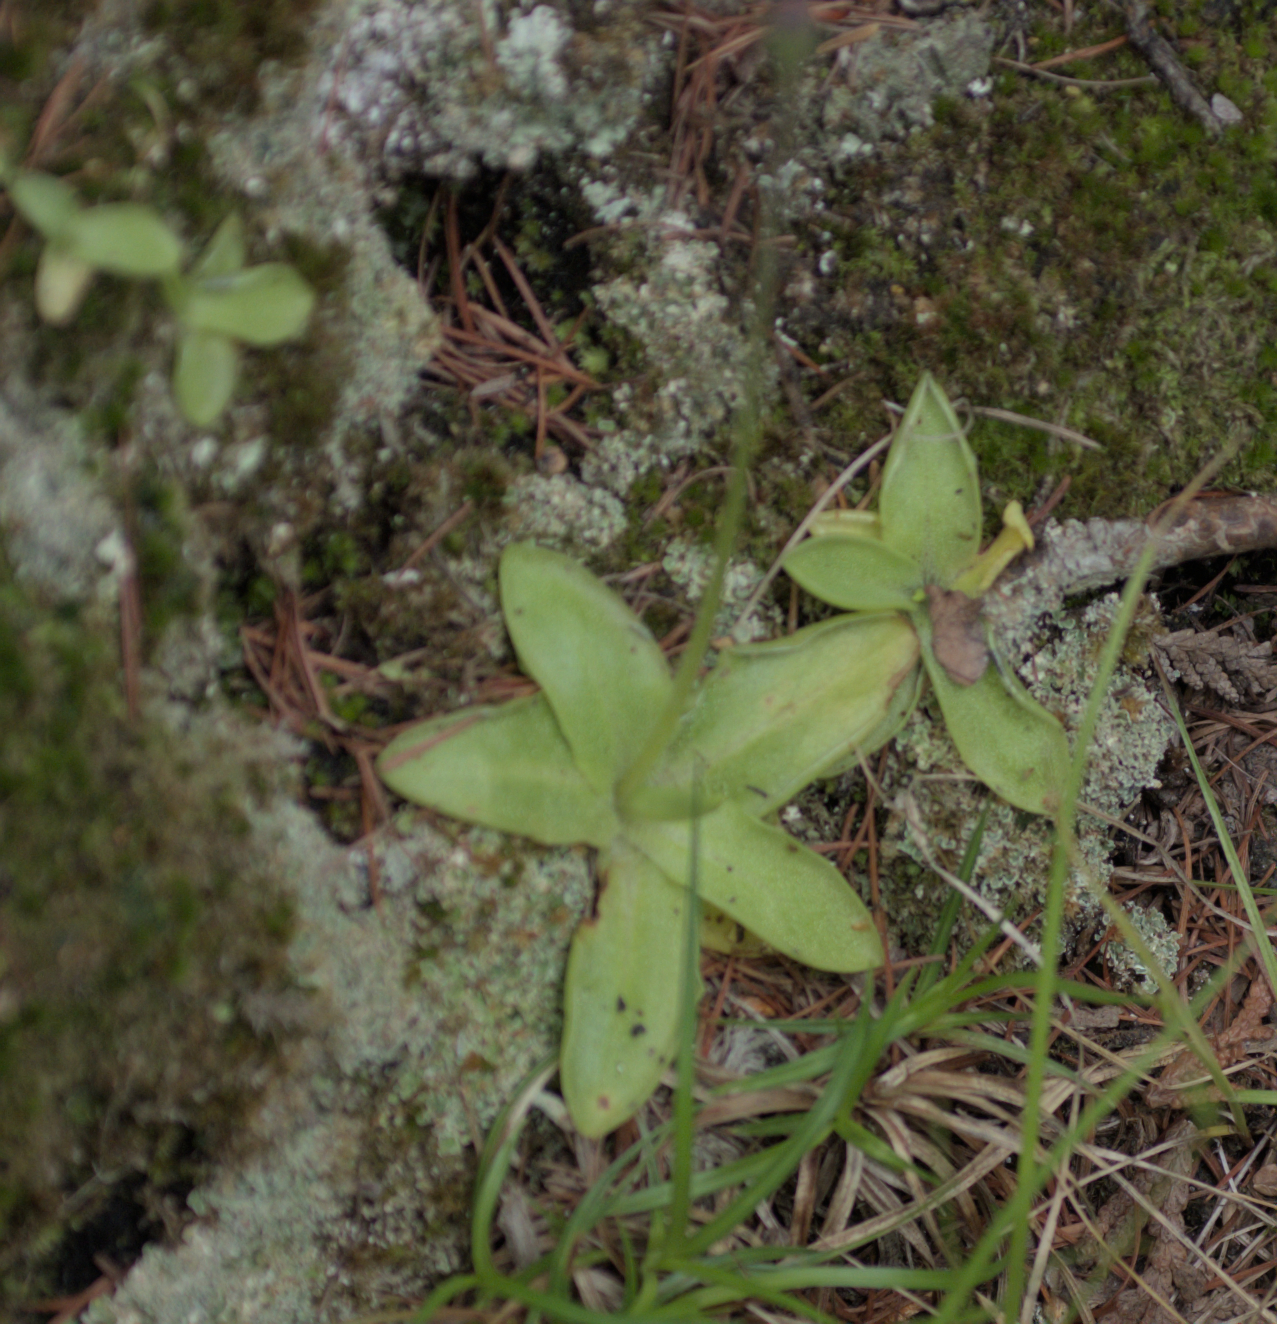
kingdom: Plantae
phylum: Tracheophyta
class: Magnoliopsida
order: Lamiales
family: Lentibulariaceae
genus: Pinguicula
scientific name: Pinguicula vulgaris
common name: Common butterwort
